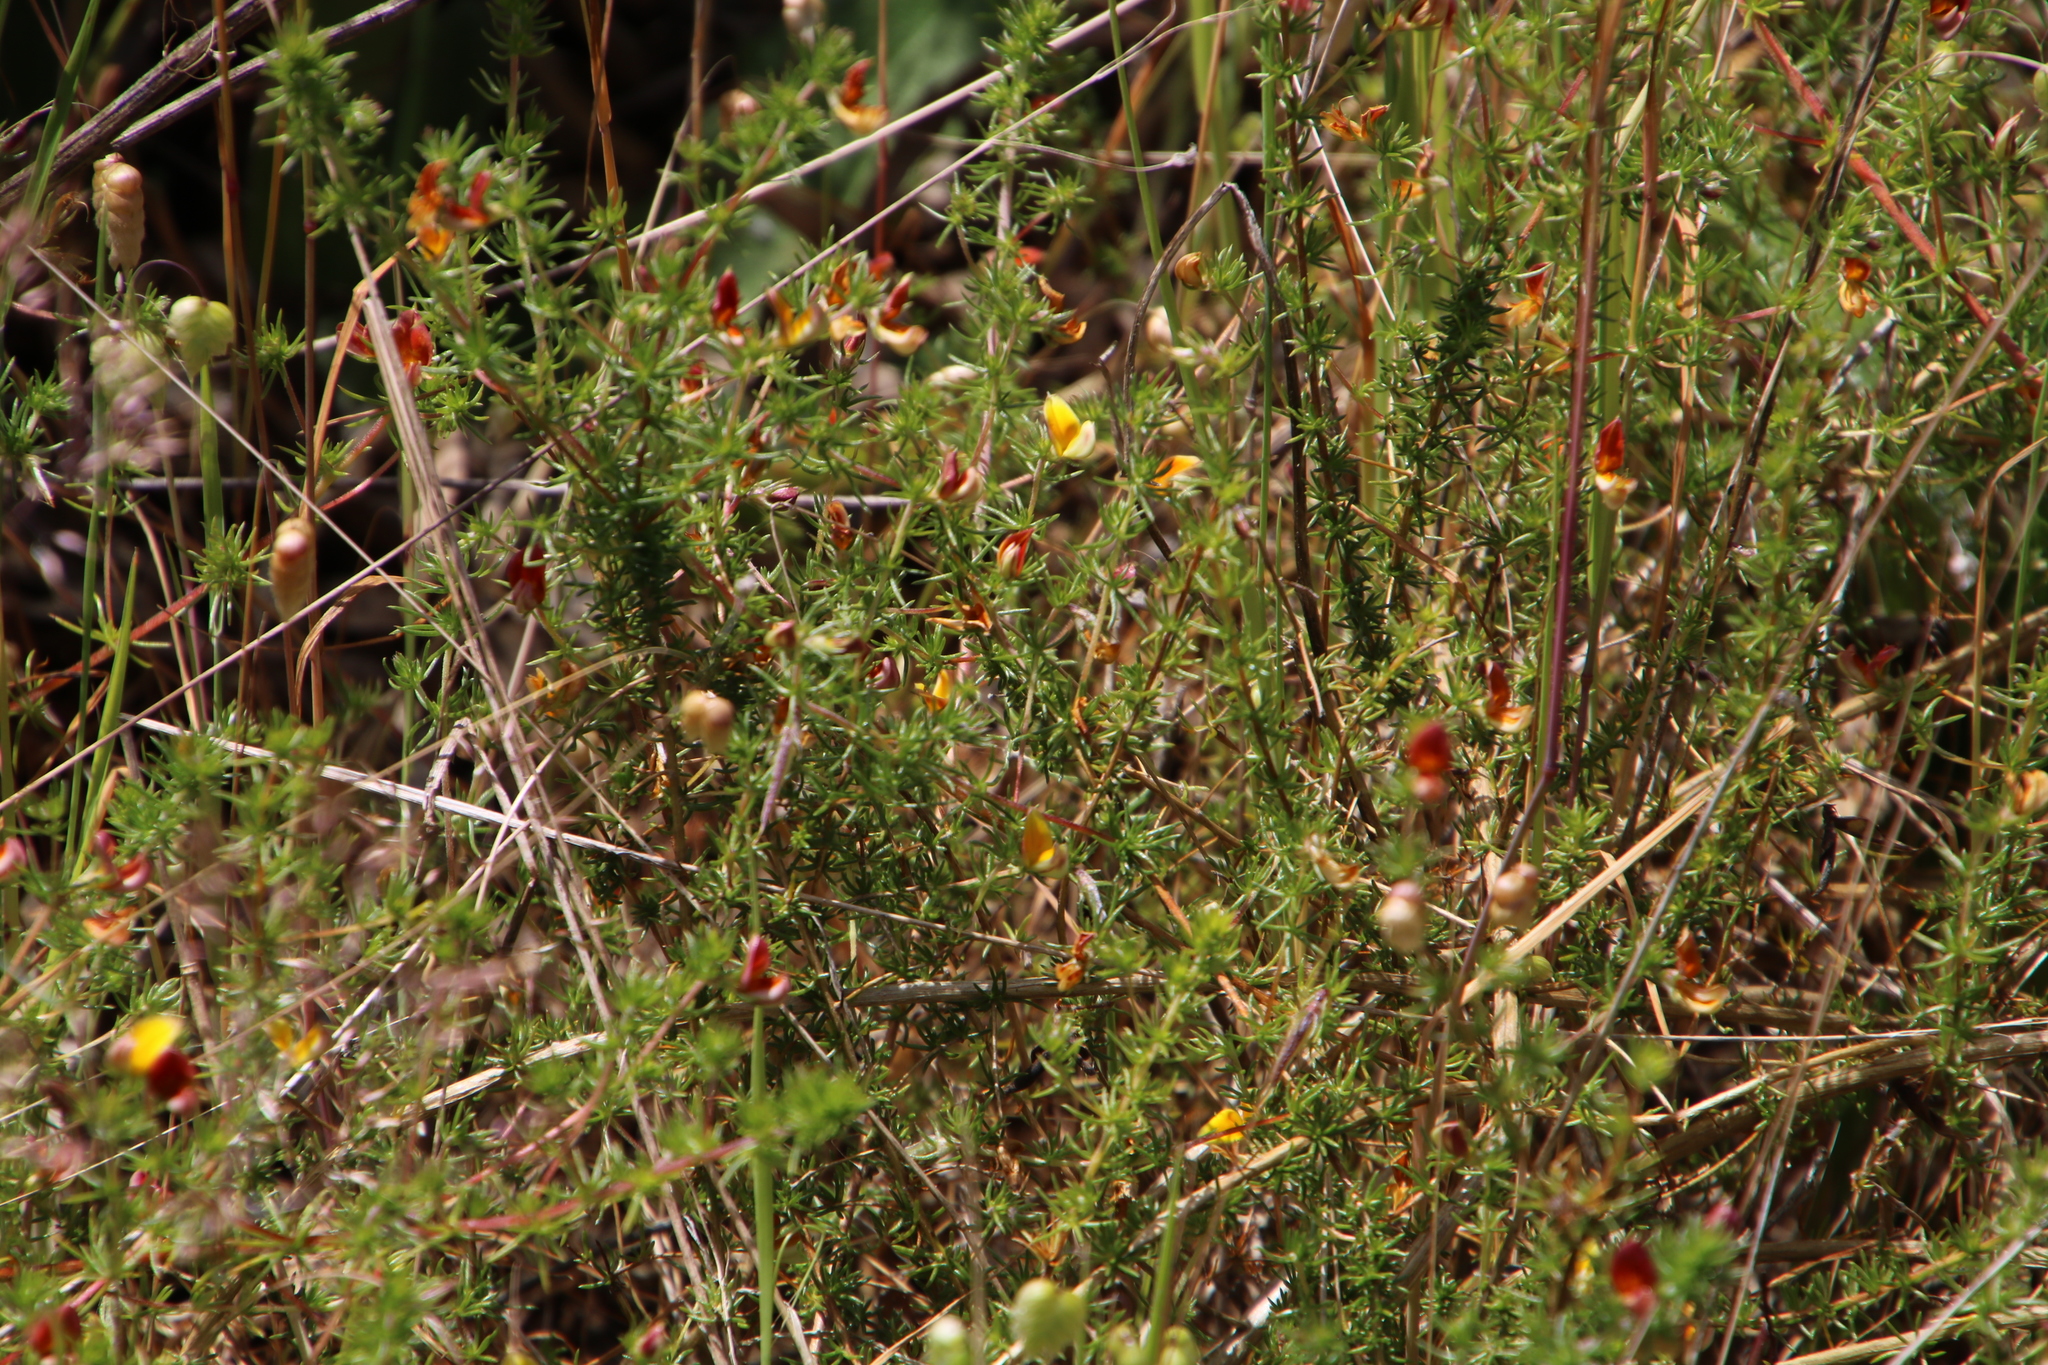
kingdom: Plantae
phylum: Tracheophyta
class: Magnoliopsida
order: Fabales
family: Fabaceae
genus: Aspalathus
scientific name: Aspalathus retroflexa
